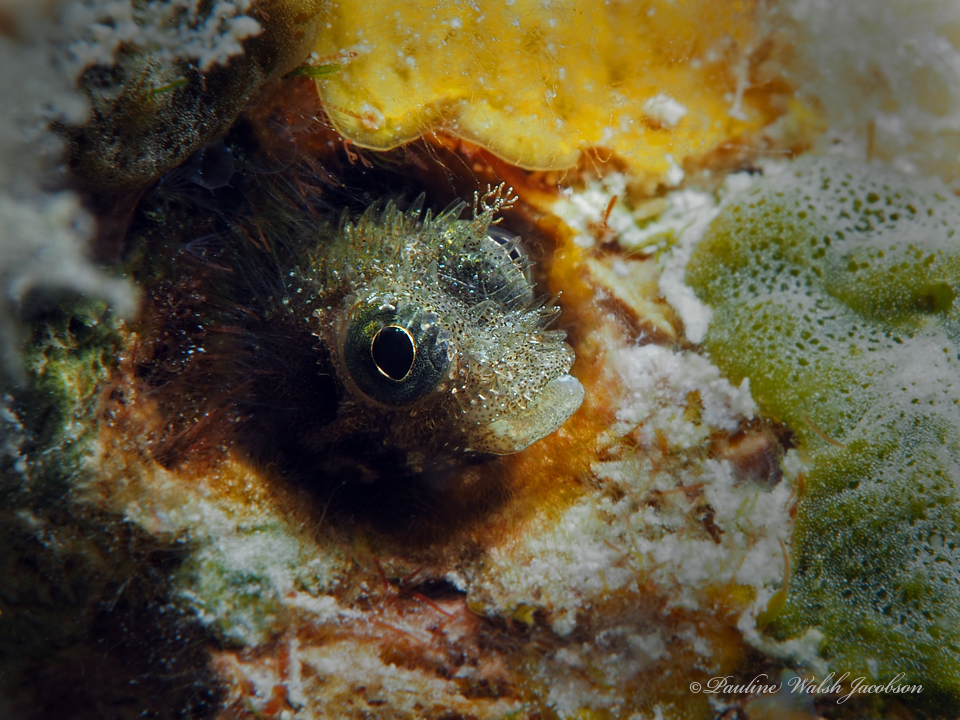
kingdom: Animalia
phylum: Chordata
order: Perciformes
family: Chaenopsidae
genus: Acanthemblemaria
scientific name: Acanthemblemaria spinosa
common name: Spinyhead blenny
